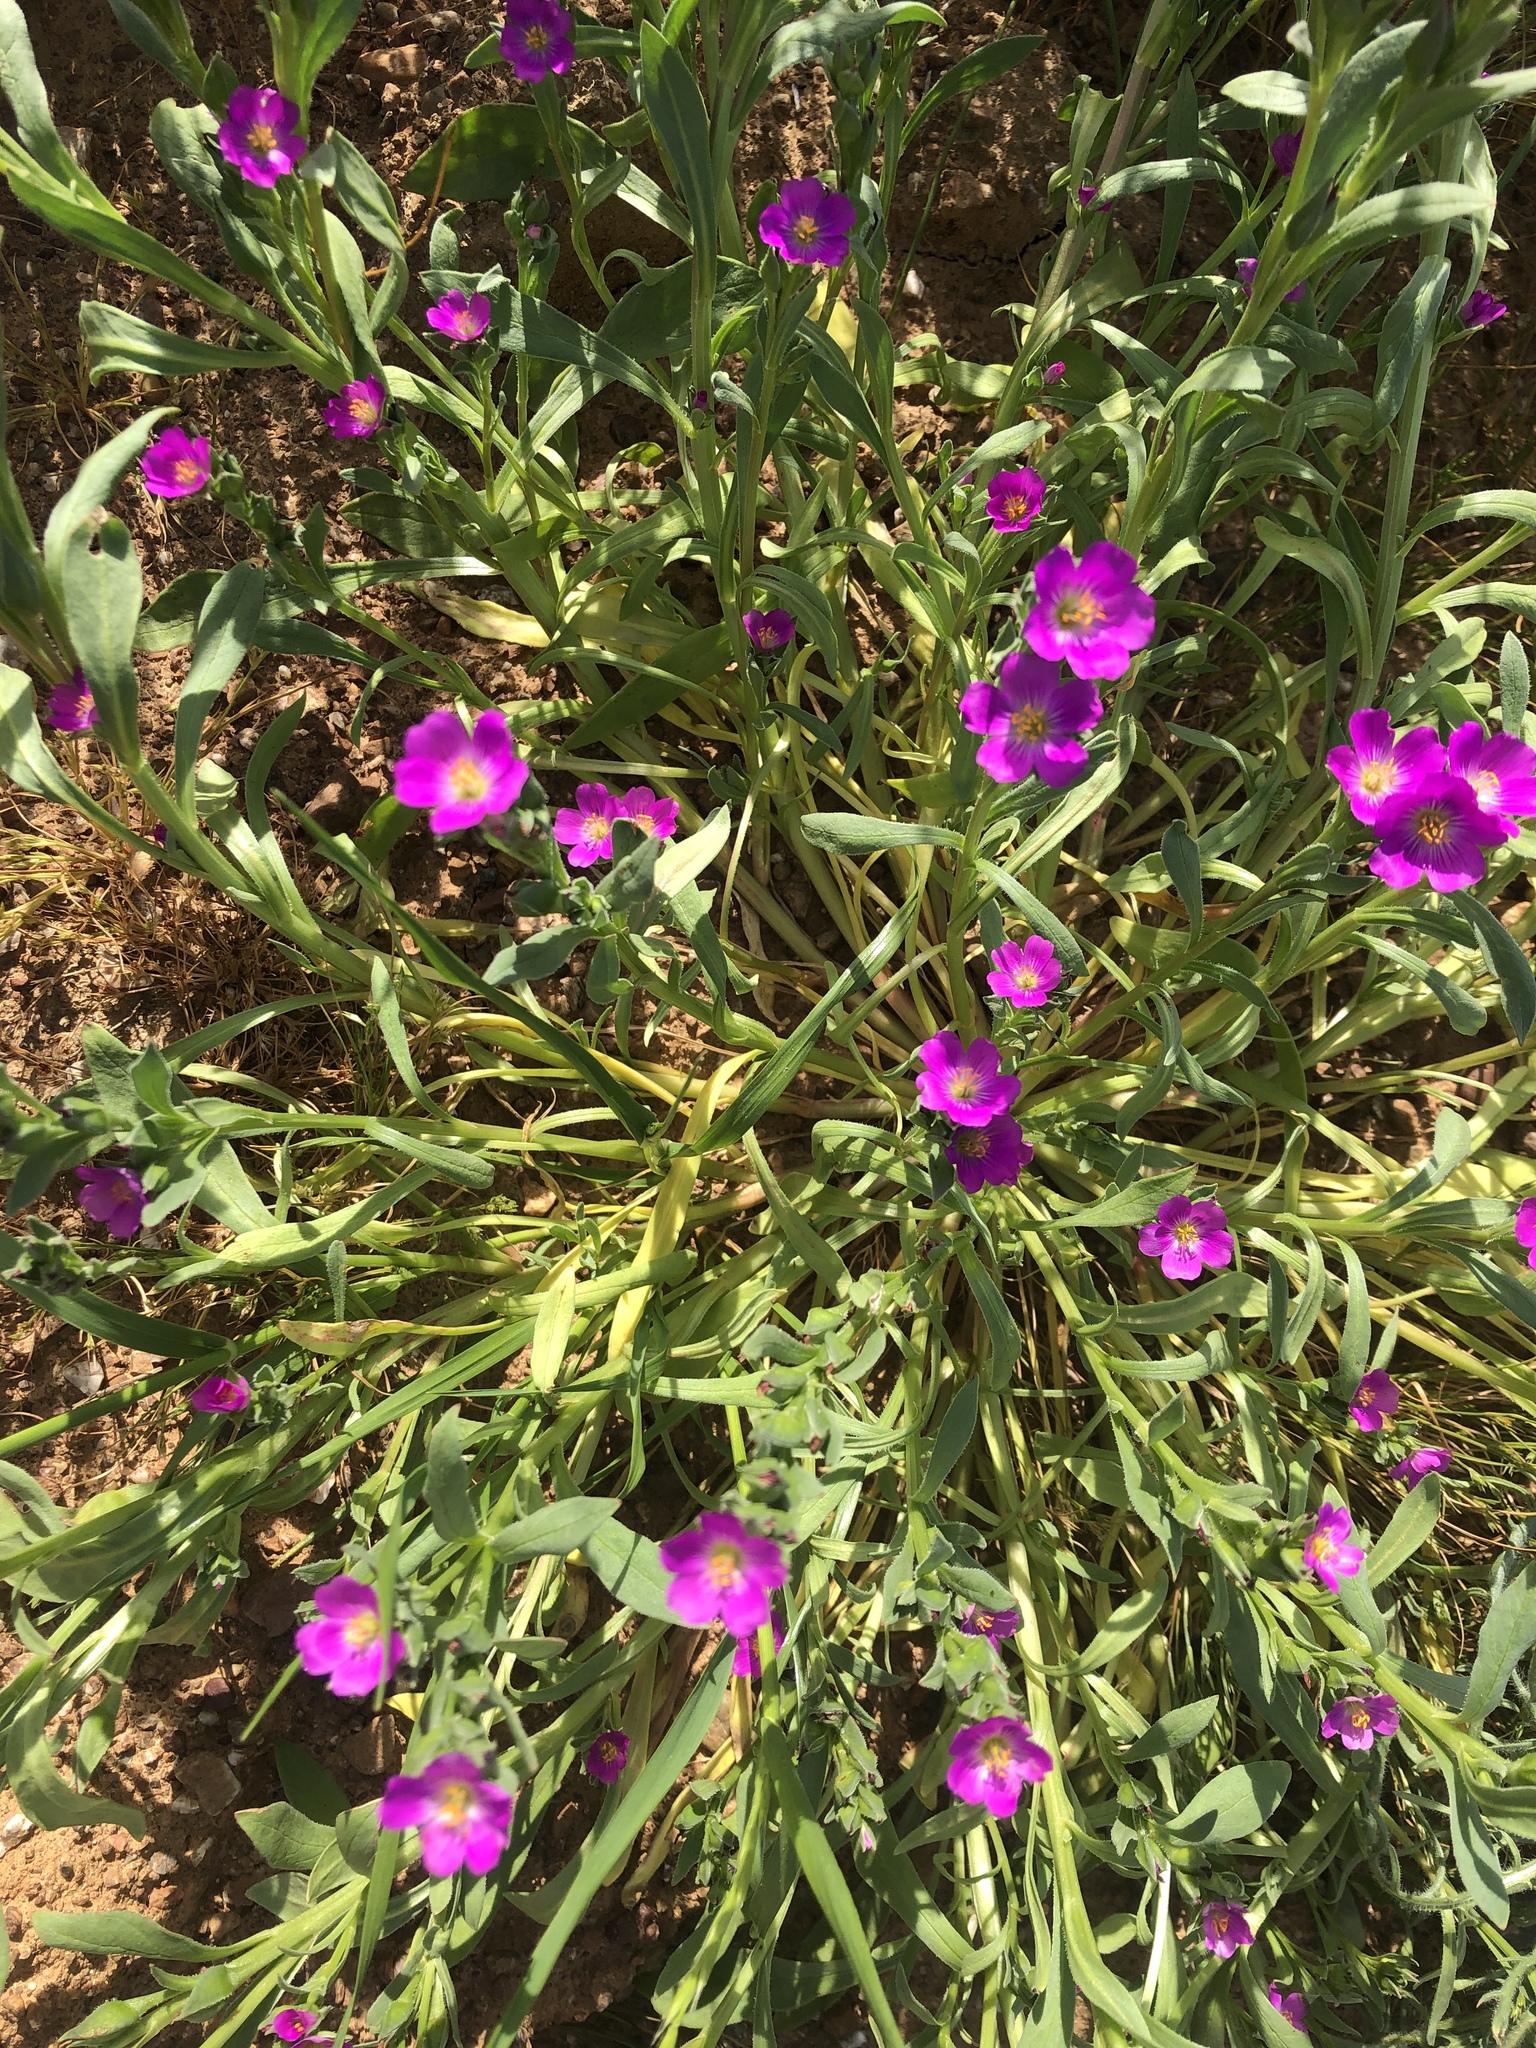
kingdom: Plantae
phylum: Tracheophyta
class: Magnoliopsida
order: Caryophyllales
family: Montiaceae
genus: Calandrinia
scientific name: Calandrinia menziesii
